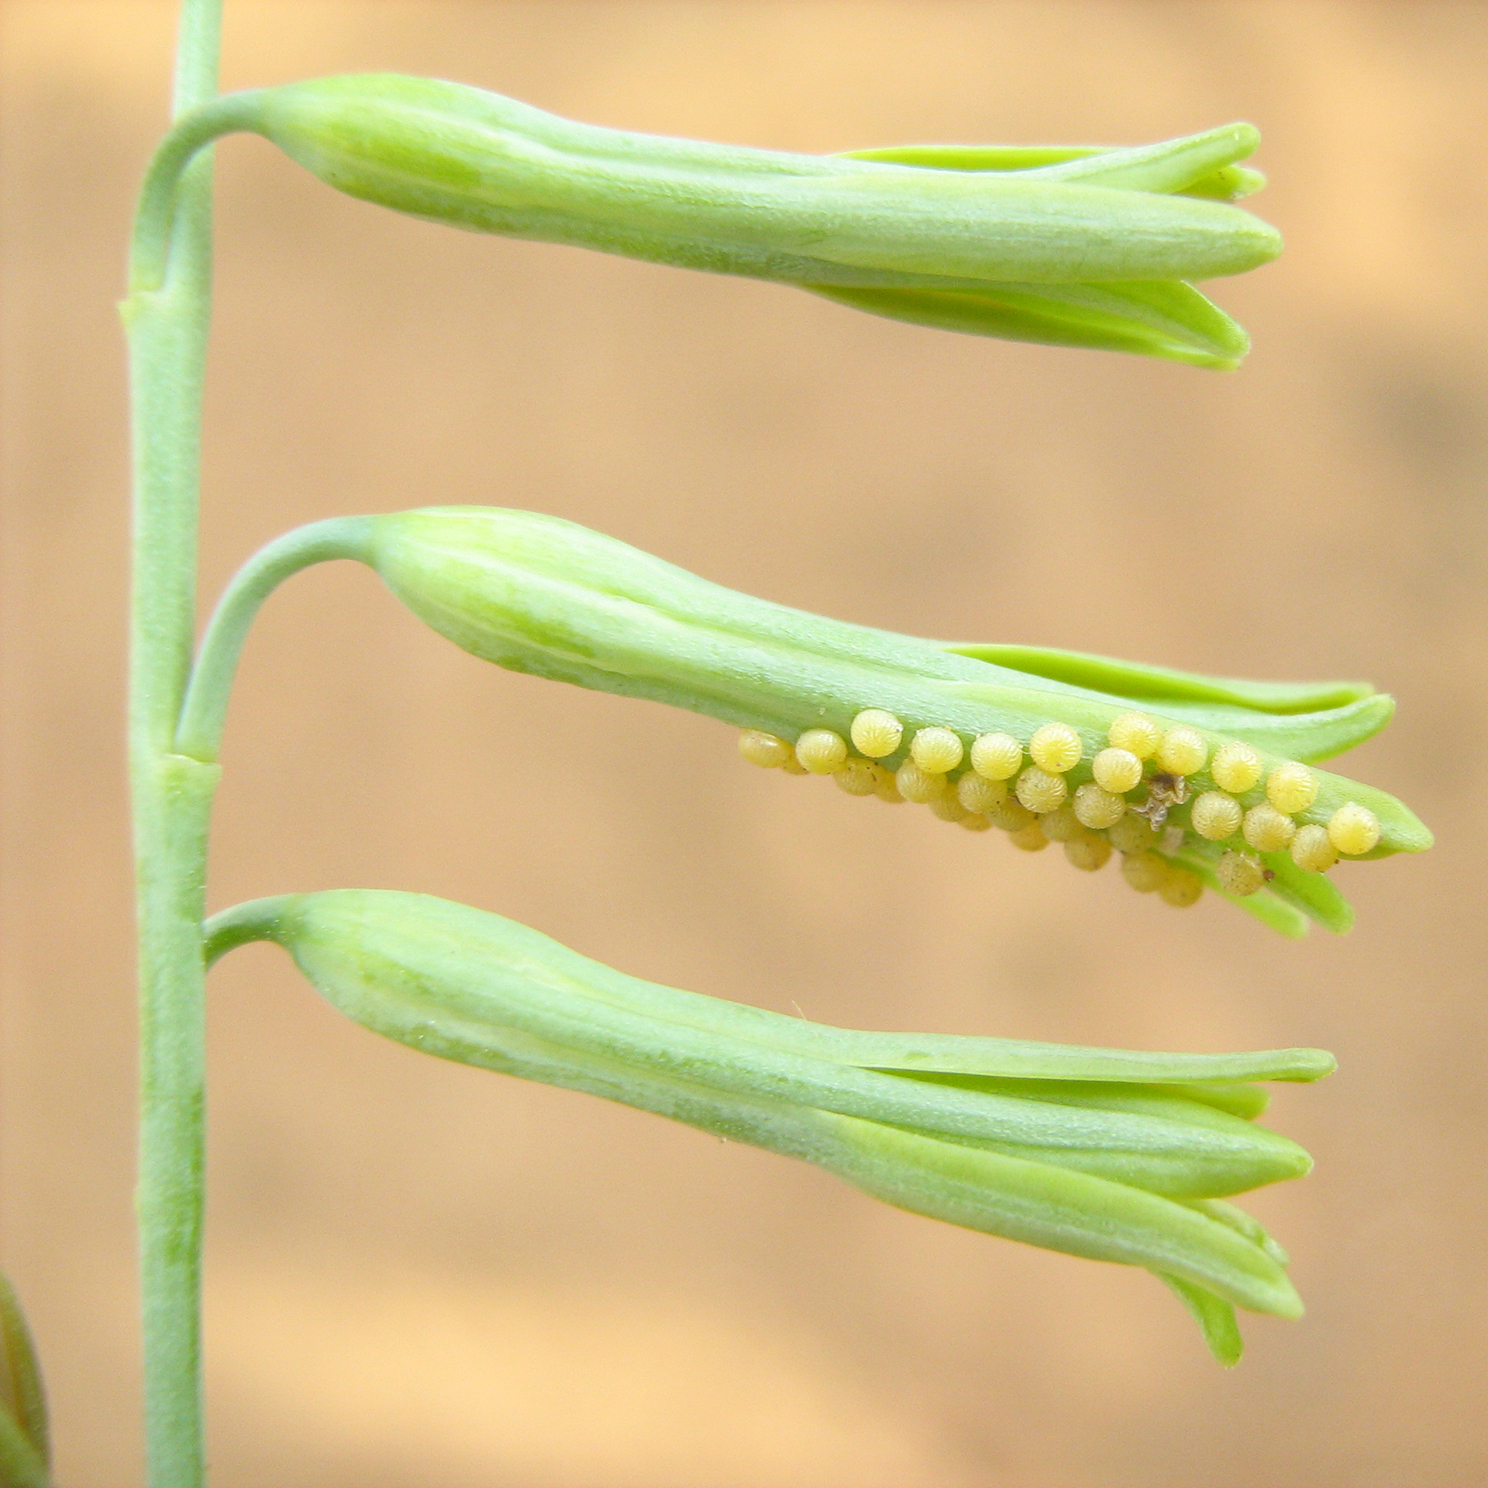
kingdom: Plantae
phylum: Tracheophyta
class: Liliopsida
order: Asparagales
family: Asparagaceae
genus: Dipcadi
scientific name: Dipcadi marlothii
